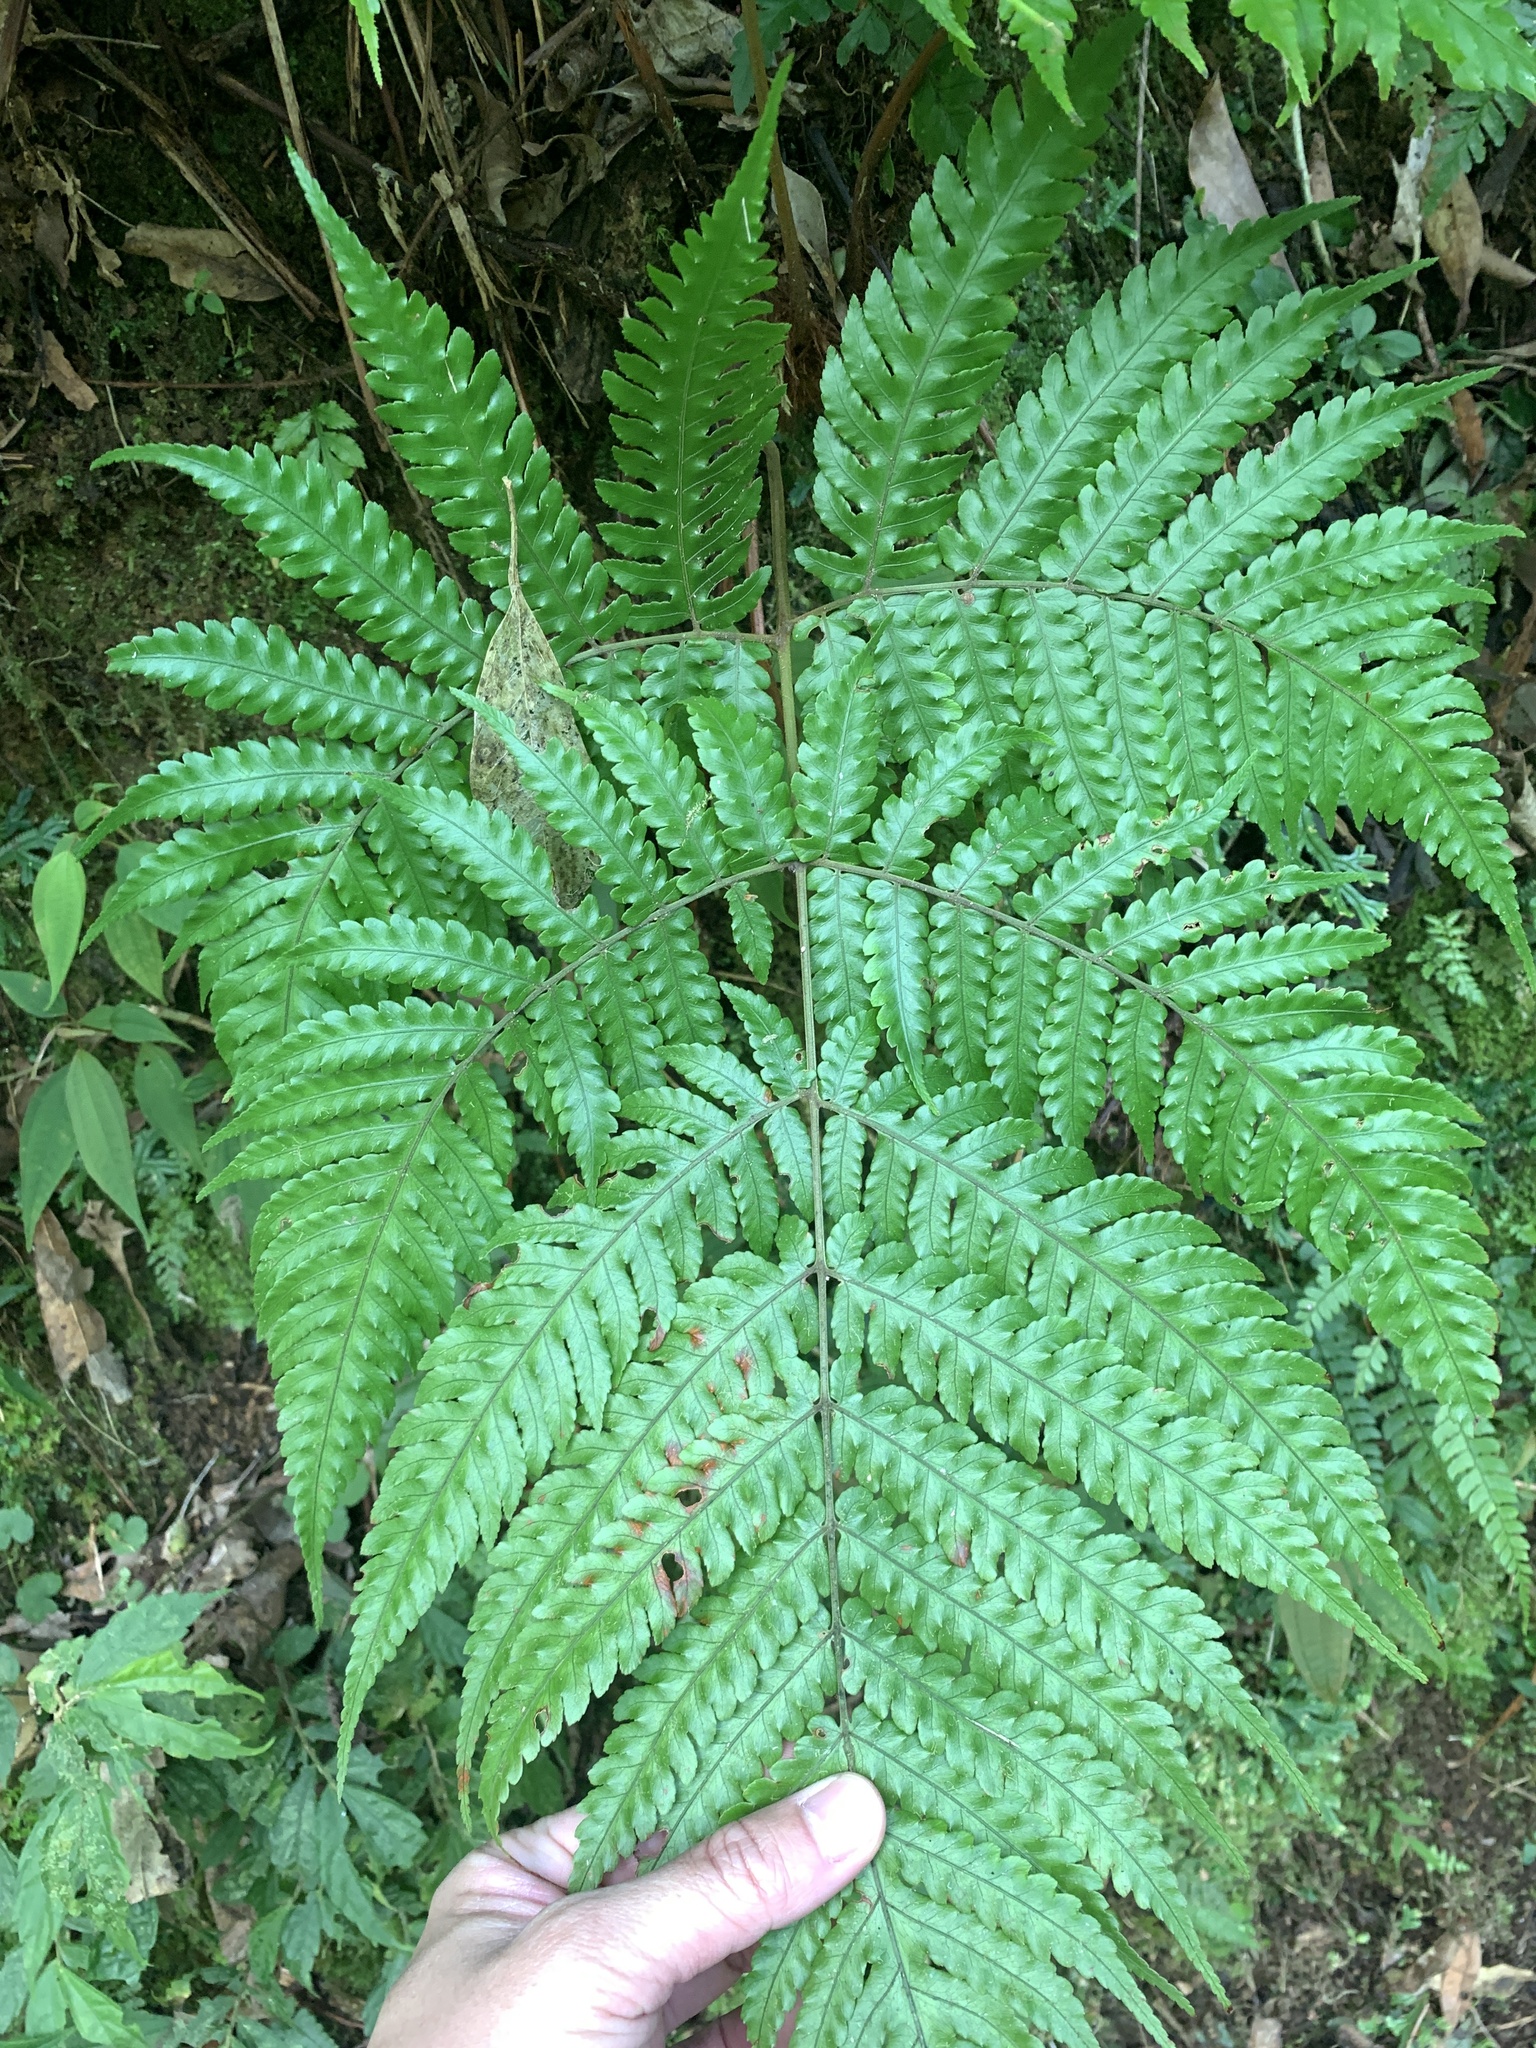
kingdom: Plantae
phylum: Tracheophyta
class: Polypodiopsida
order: Polypodiales
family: Dryopteridaceae
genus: Pleocnemia
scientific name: Pleocnemia submembranacea
